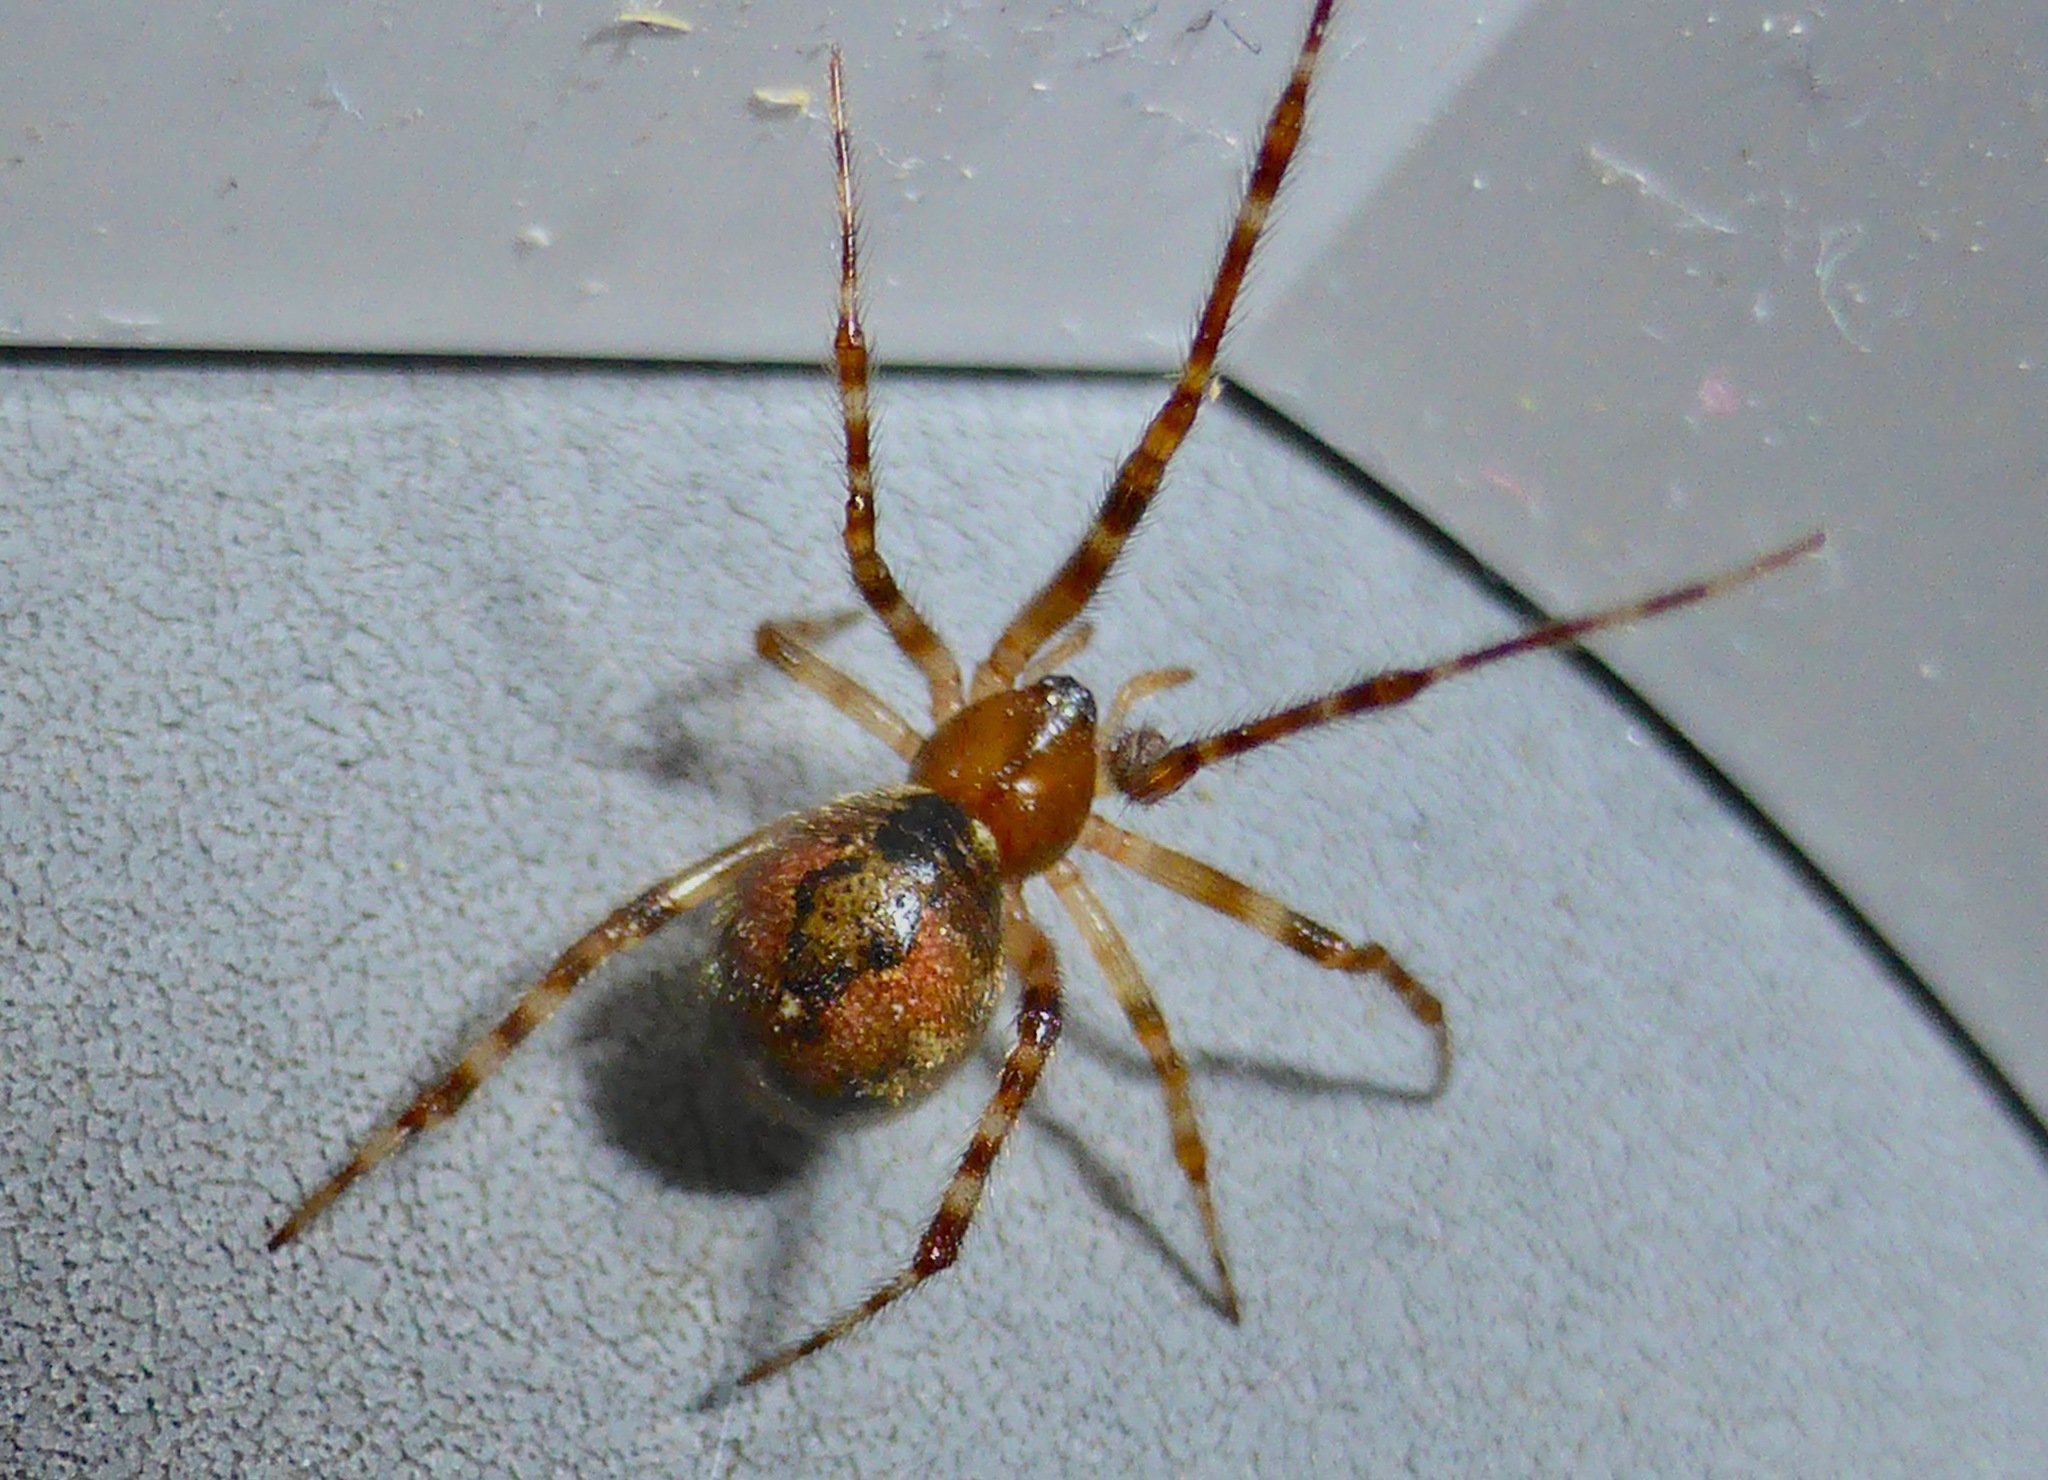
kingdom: Animalia
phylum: Arthropoda
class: Arachnida
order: Araneae
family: Theridiidae
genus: Cryptachaea
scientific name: Cryptachaea veruculata
